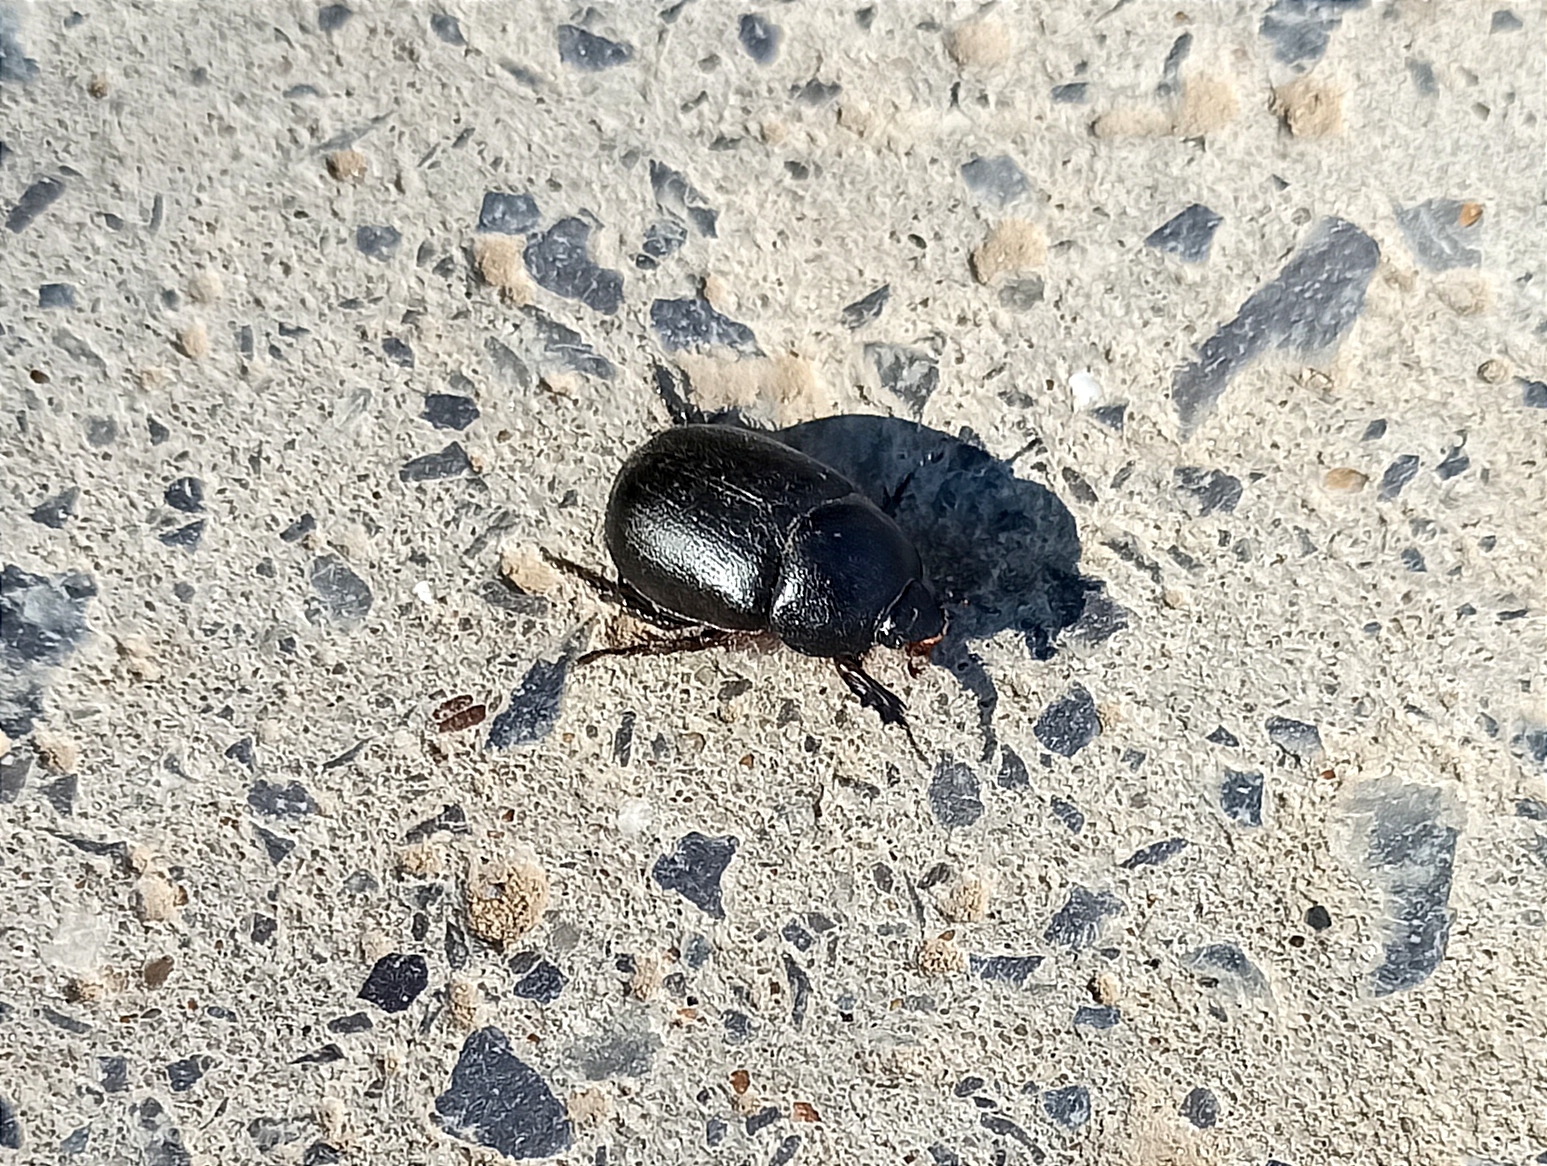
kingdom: Animalia
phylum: Arthropoda
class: Insecta
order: Coleoptera
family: Scarabaeidae
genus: Pentodon
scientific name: Pentodon idiota
